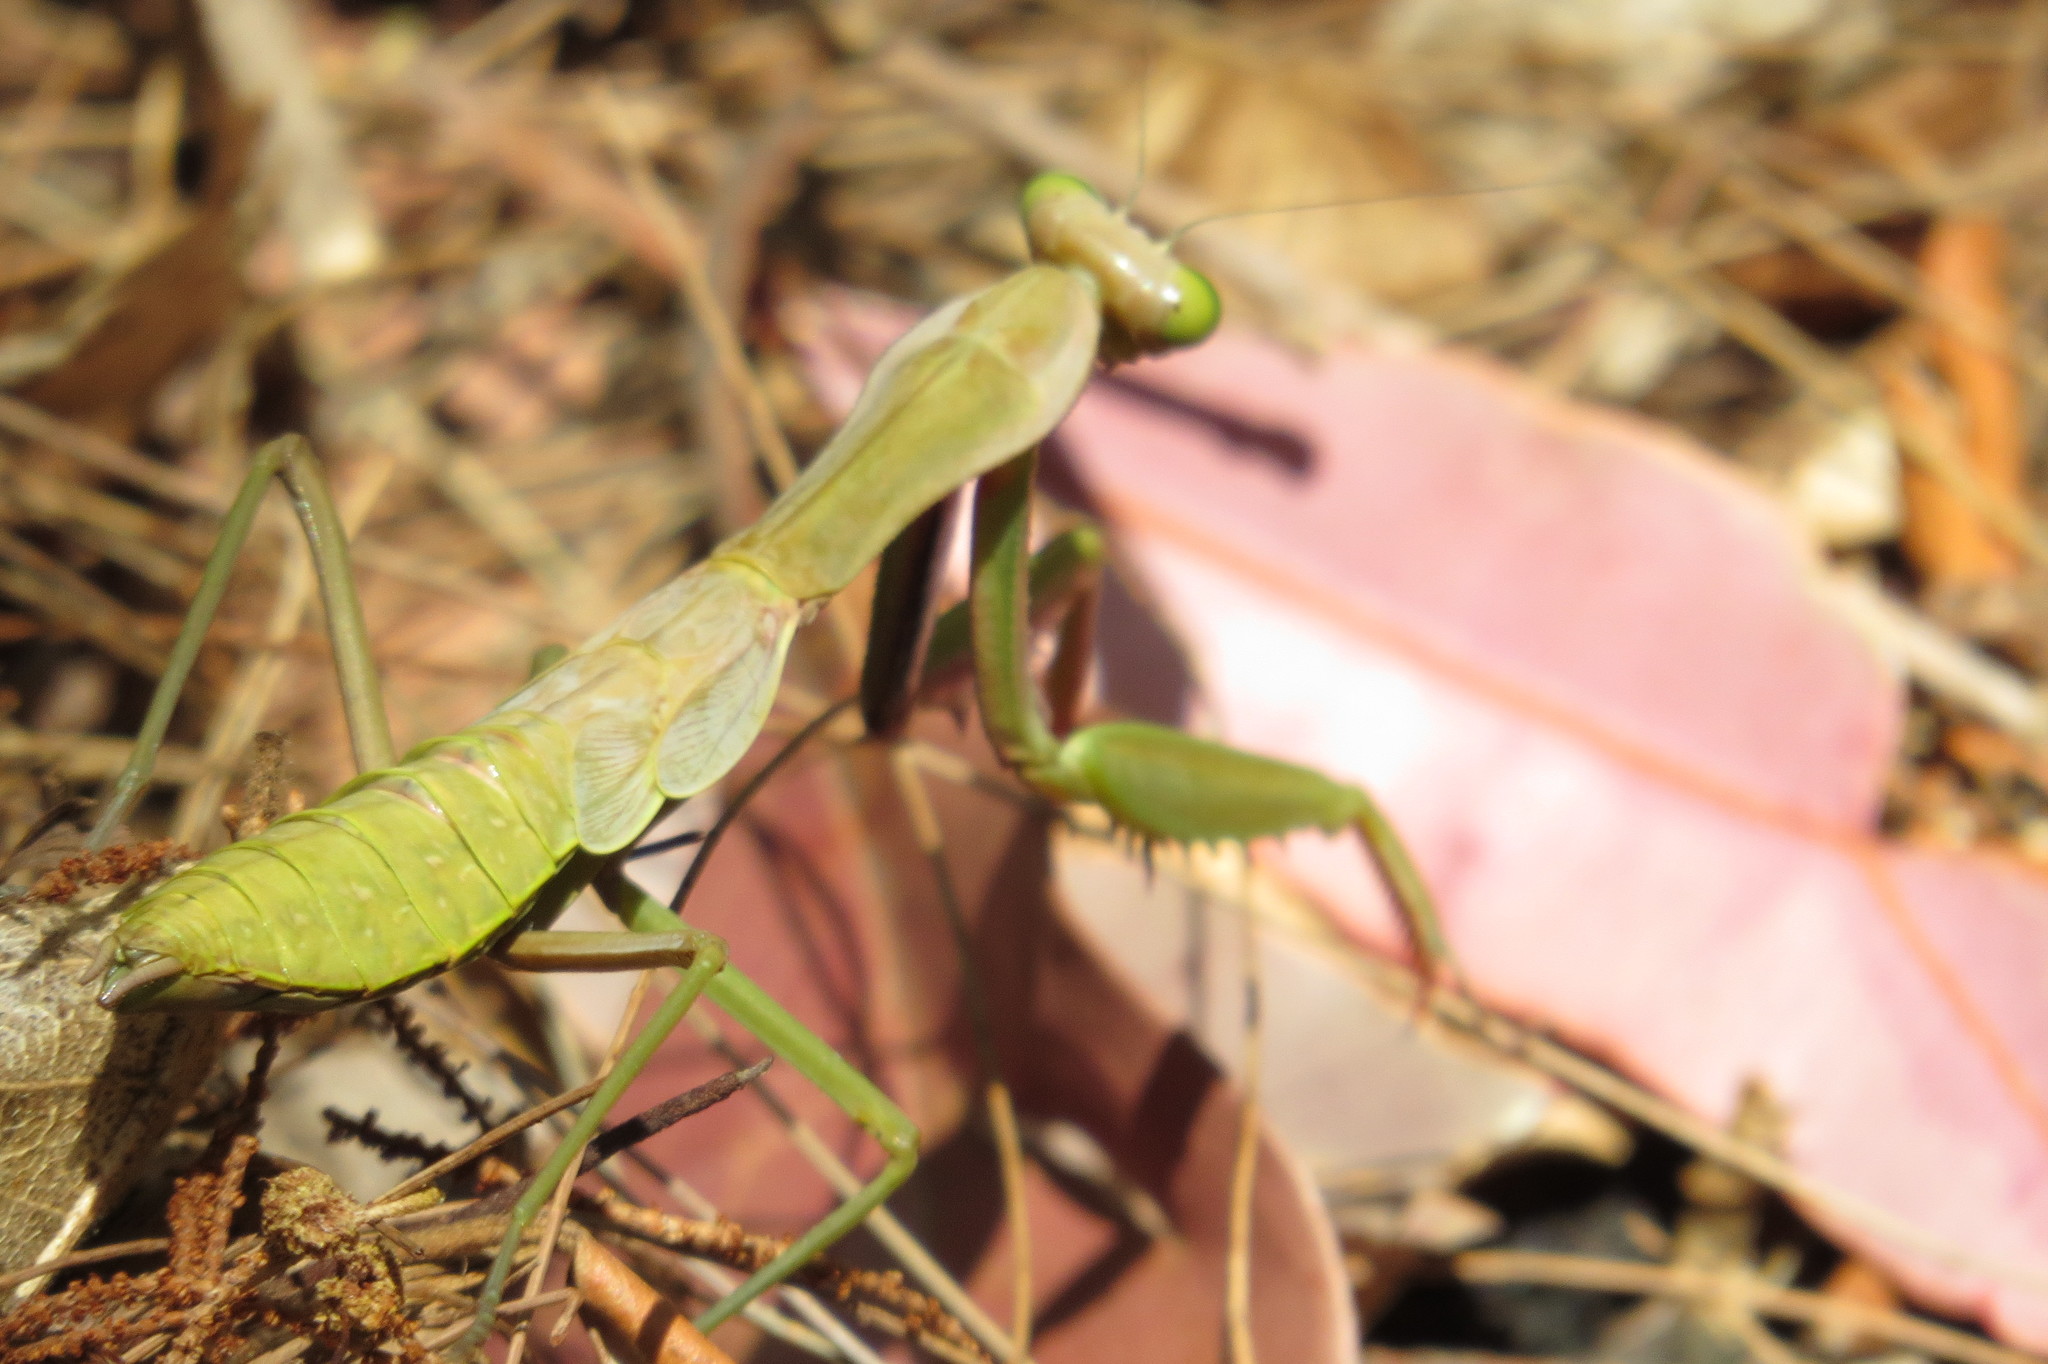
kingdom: Animalia
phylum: Arthropoda
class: Insecta
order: Mantodea
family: Mantidae
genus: Hierodula
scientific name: Hierodula majuscula
